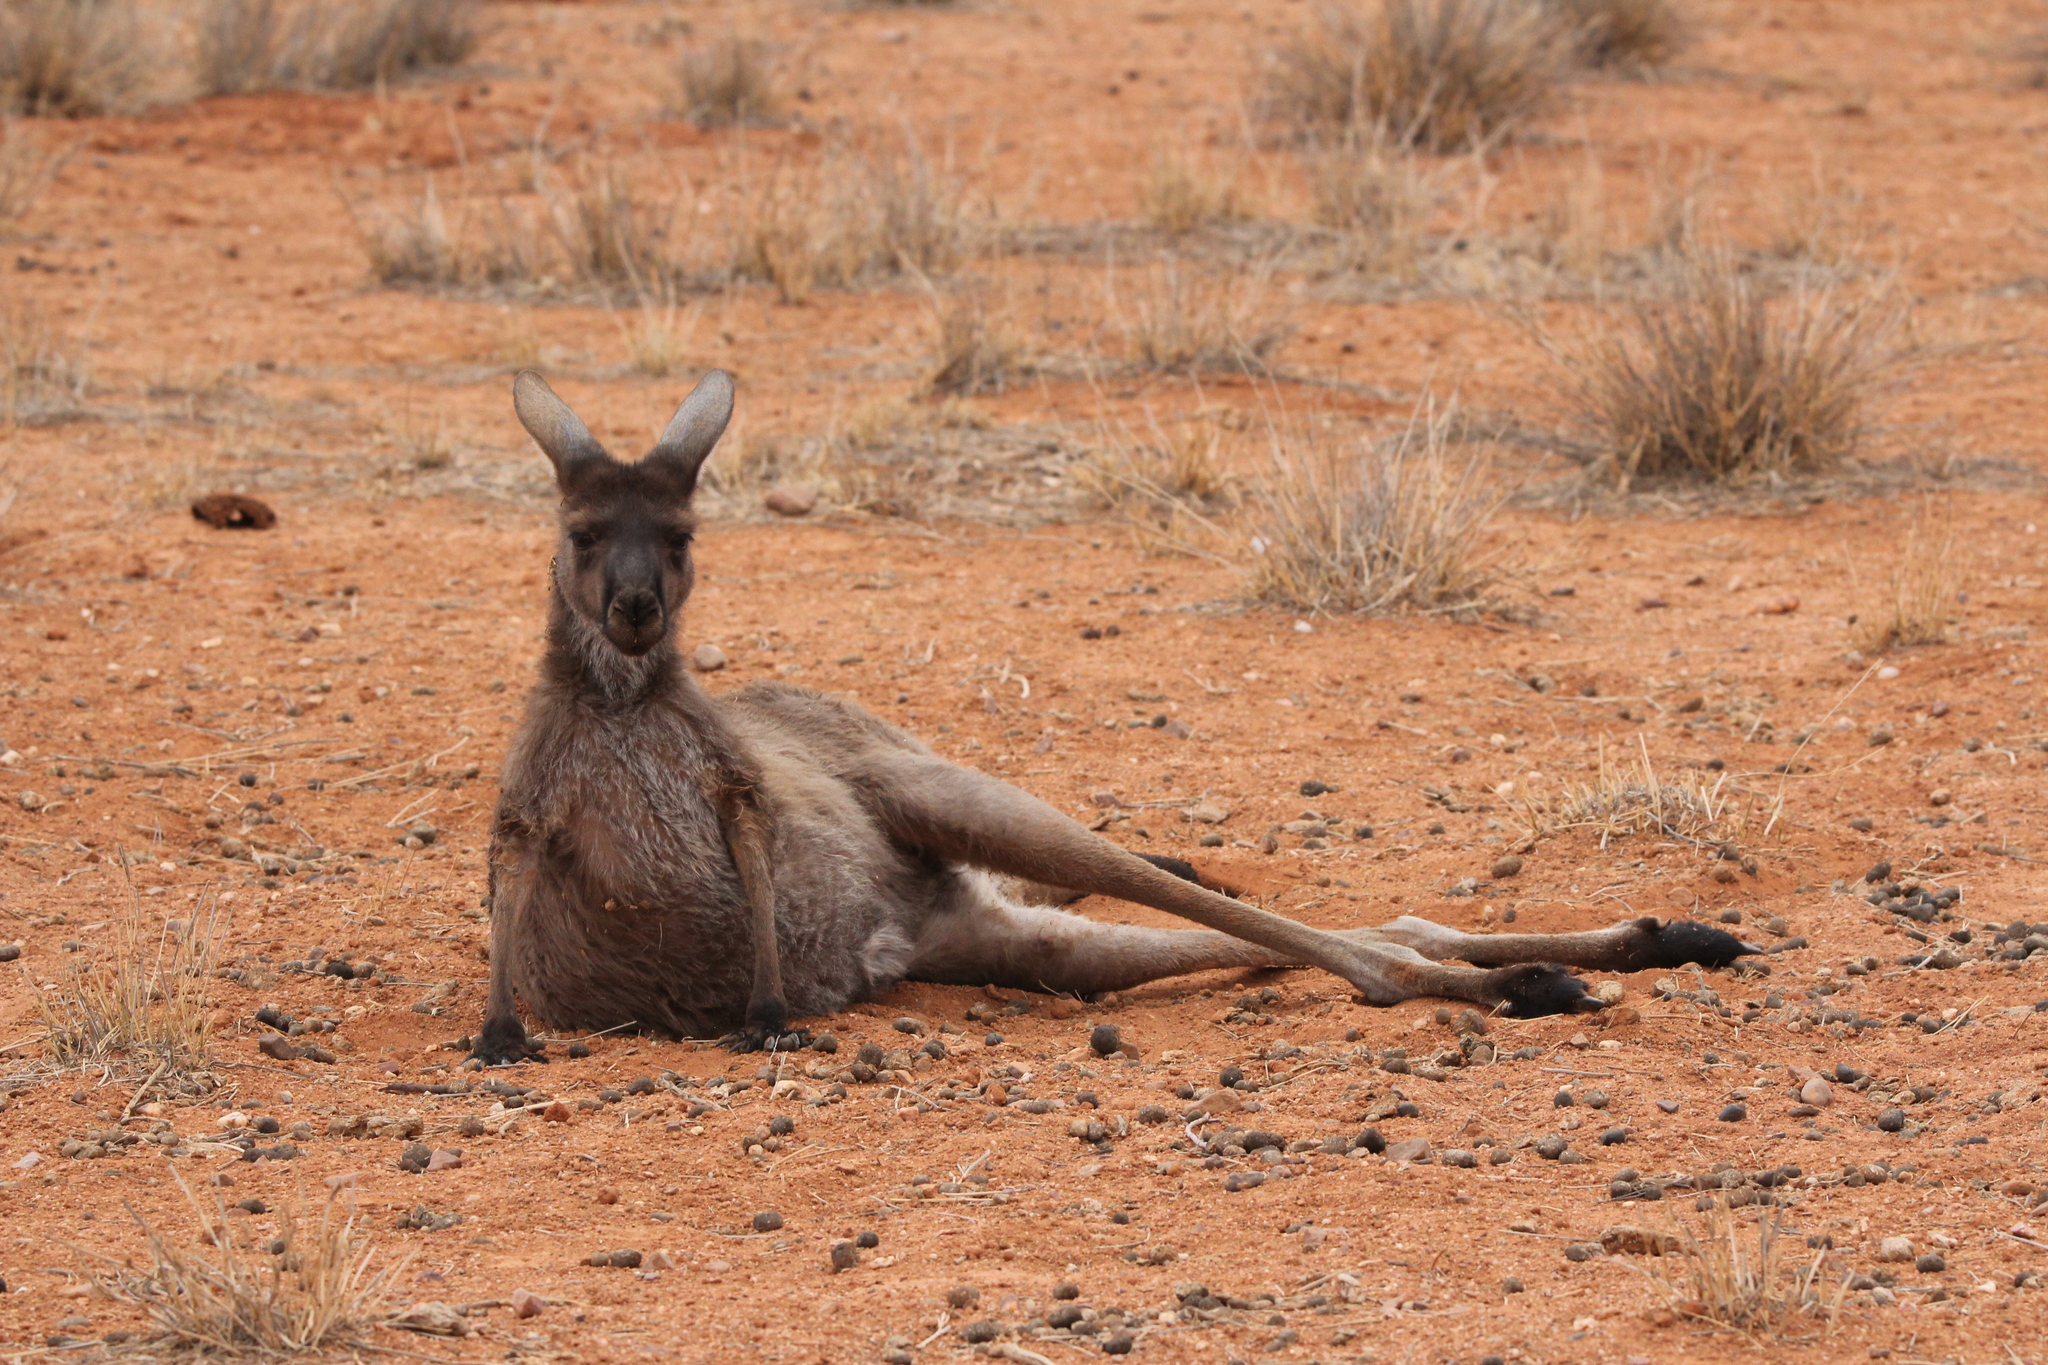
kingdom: Animalia
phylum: Chordata
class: Mammalia
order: Diprotodontia
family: Macropodidae
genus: Macropus
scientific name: Macropus fuliginosus
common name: Western grey kangaroo
